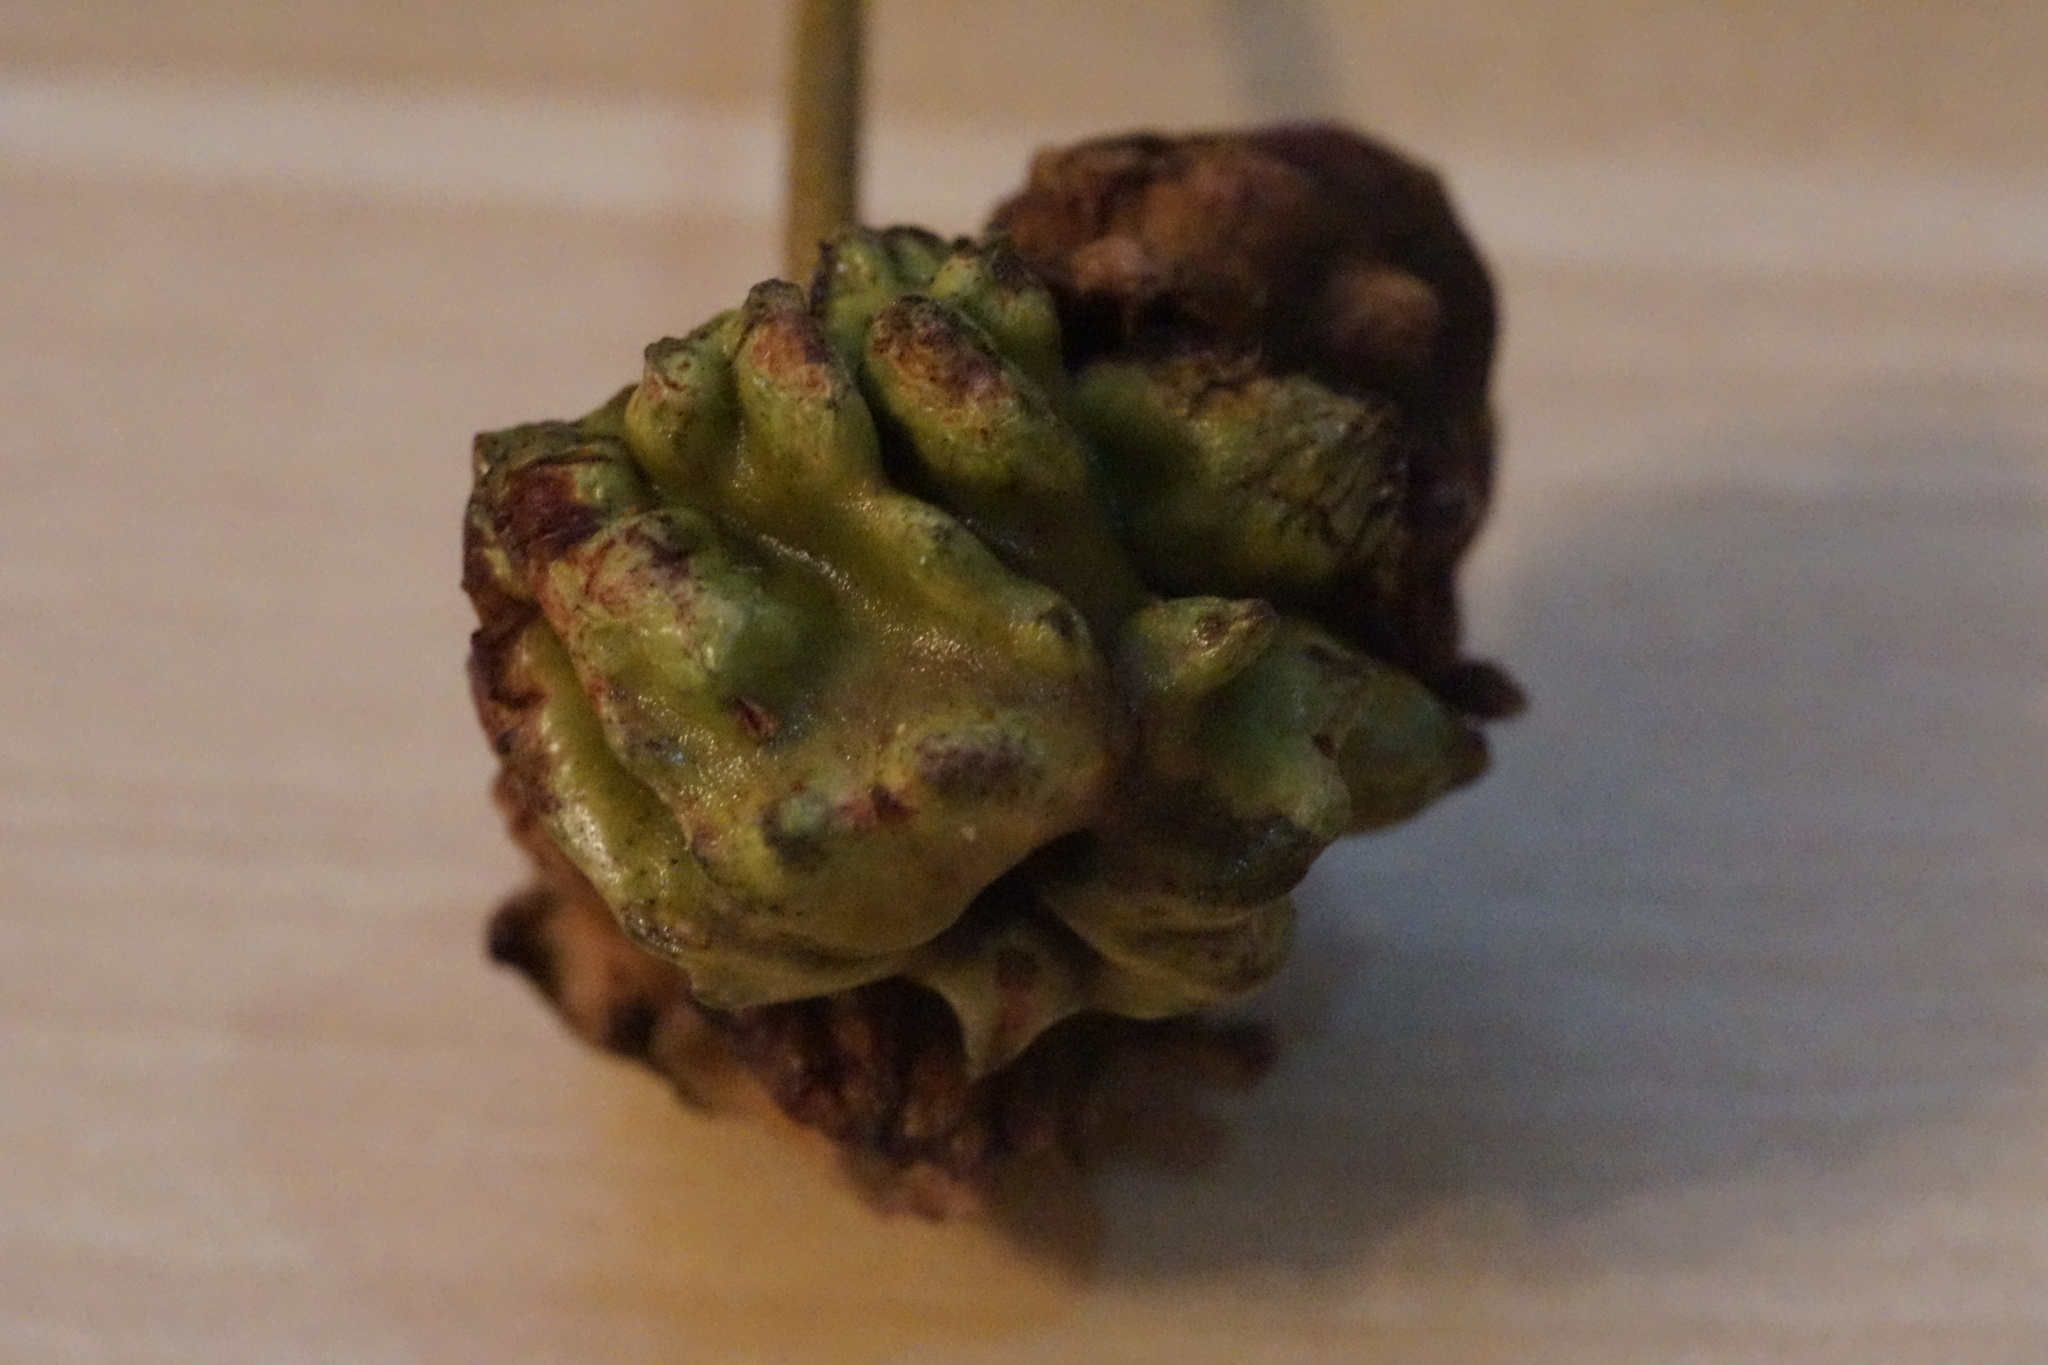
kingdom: Animalia
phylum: Arthropoda
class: Insecta
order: Hymenoptera
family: Cynipidae
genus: Andricus
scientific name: Andricus quercuscalicis
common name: Knopper gall
